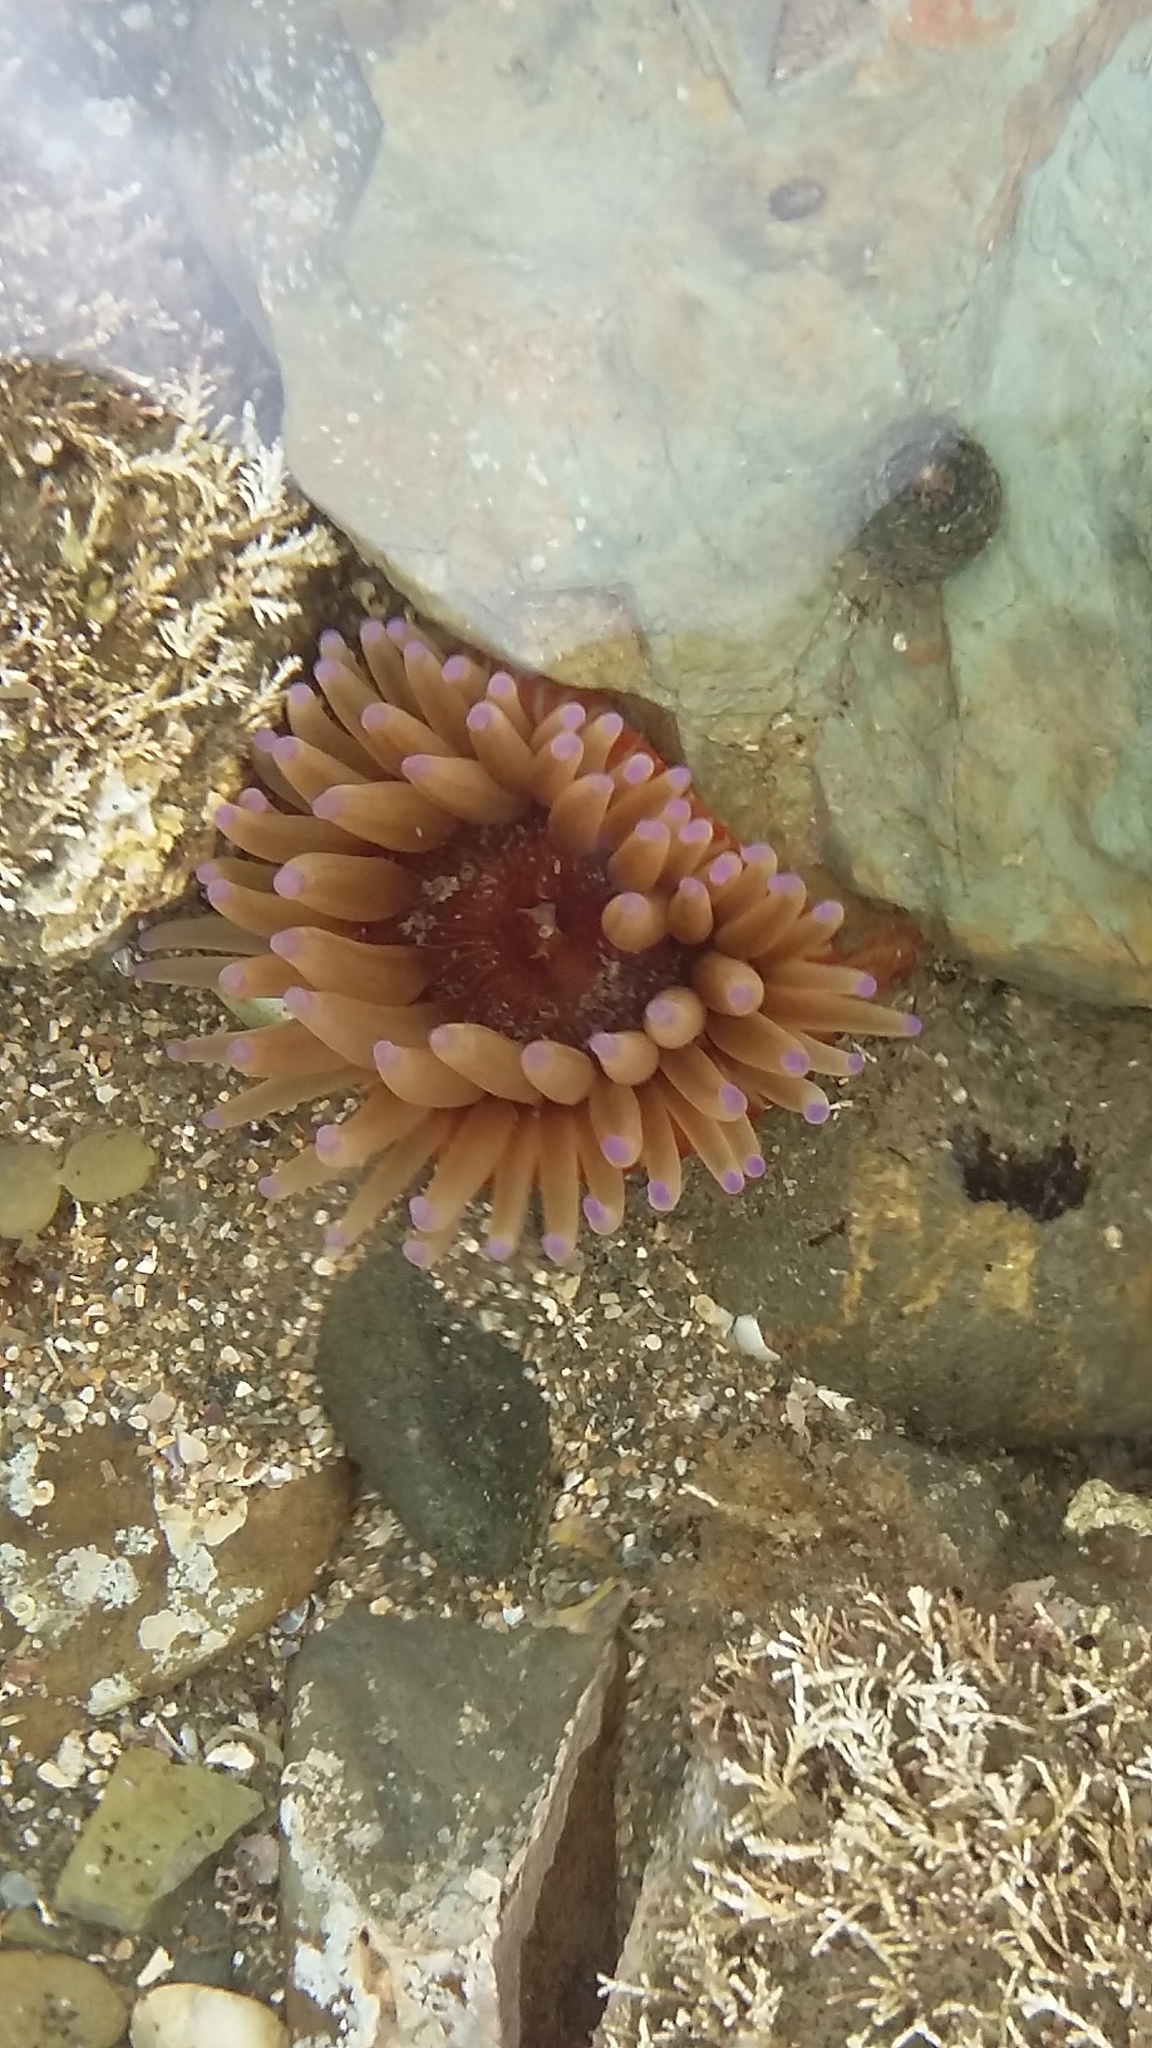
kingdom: Animalia
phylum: Cnidaria
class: Anthozoa
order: Actiniaria
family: Actiniidae
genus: Epiactis
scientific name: Epiactis thompsoni
